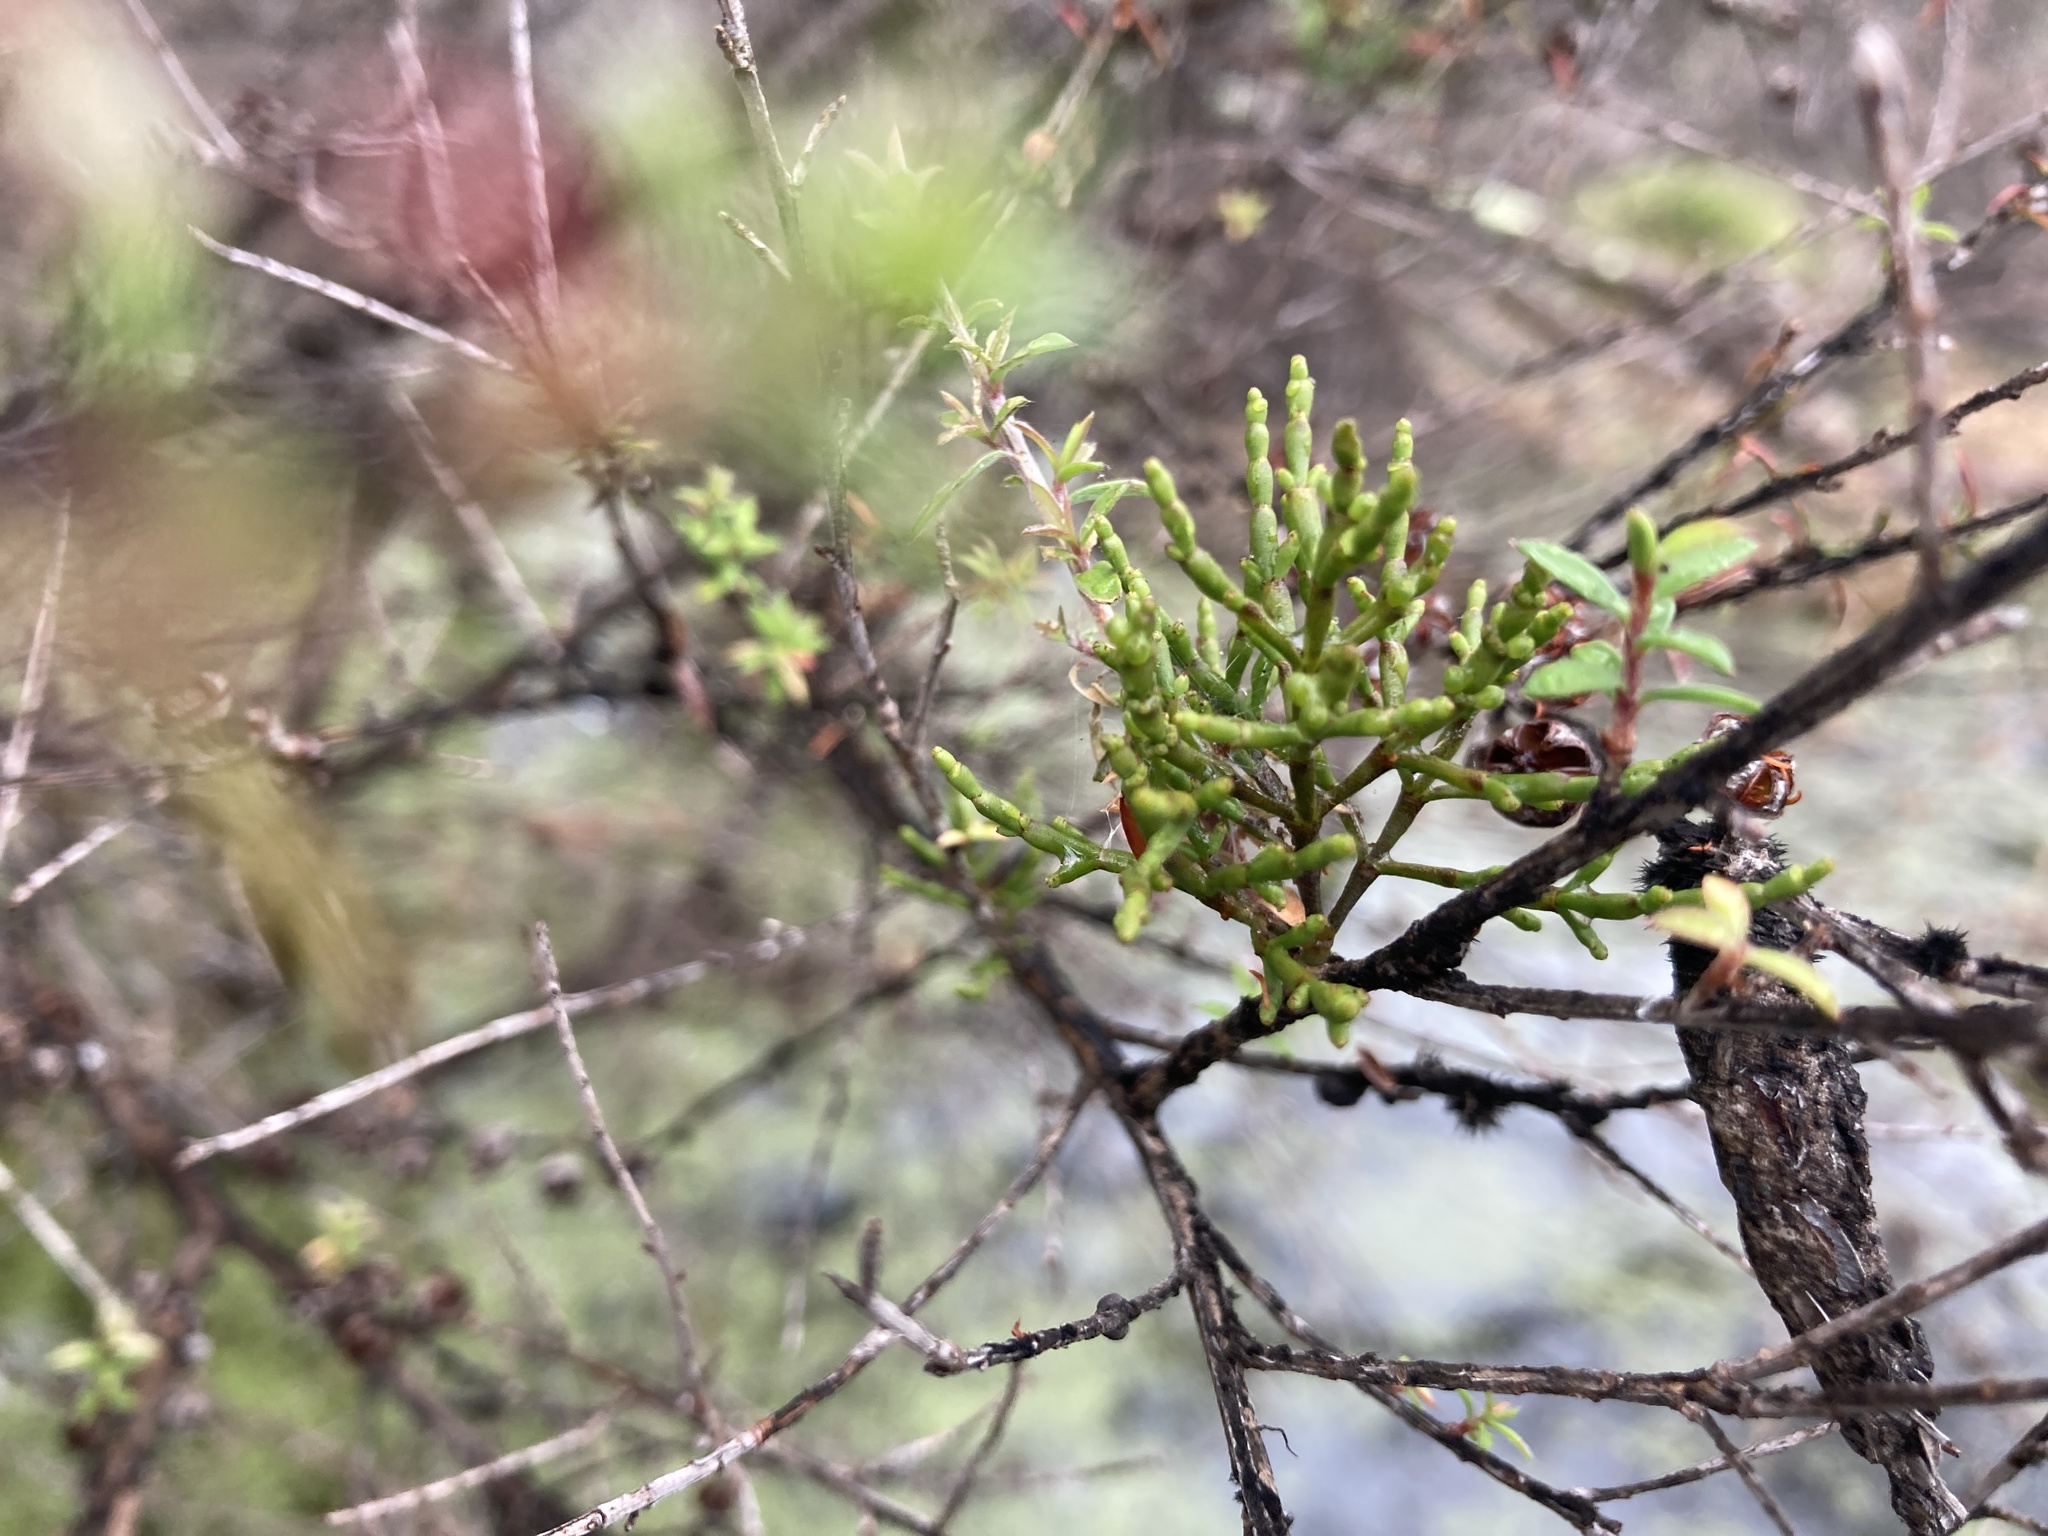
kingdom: Plantae
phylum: Tracheophyta
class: Magnoliopsida
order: Santalales
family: Viscaceae
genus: Korthalsella
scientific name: Korthalsella salicornioides
